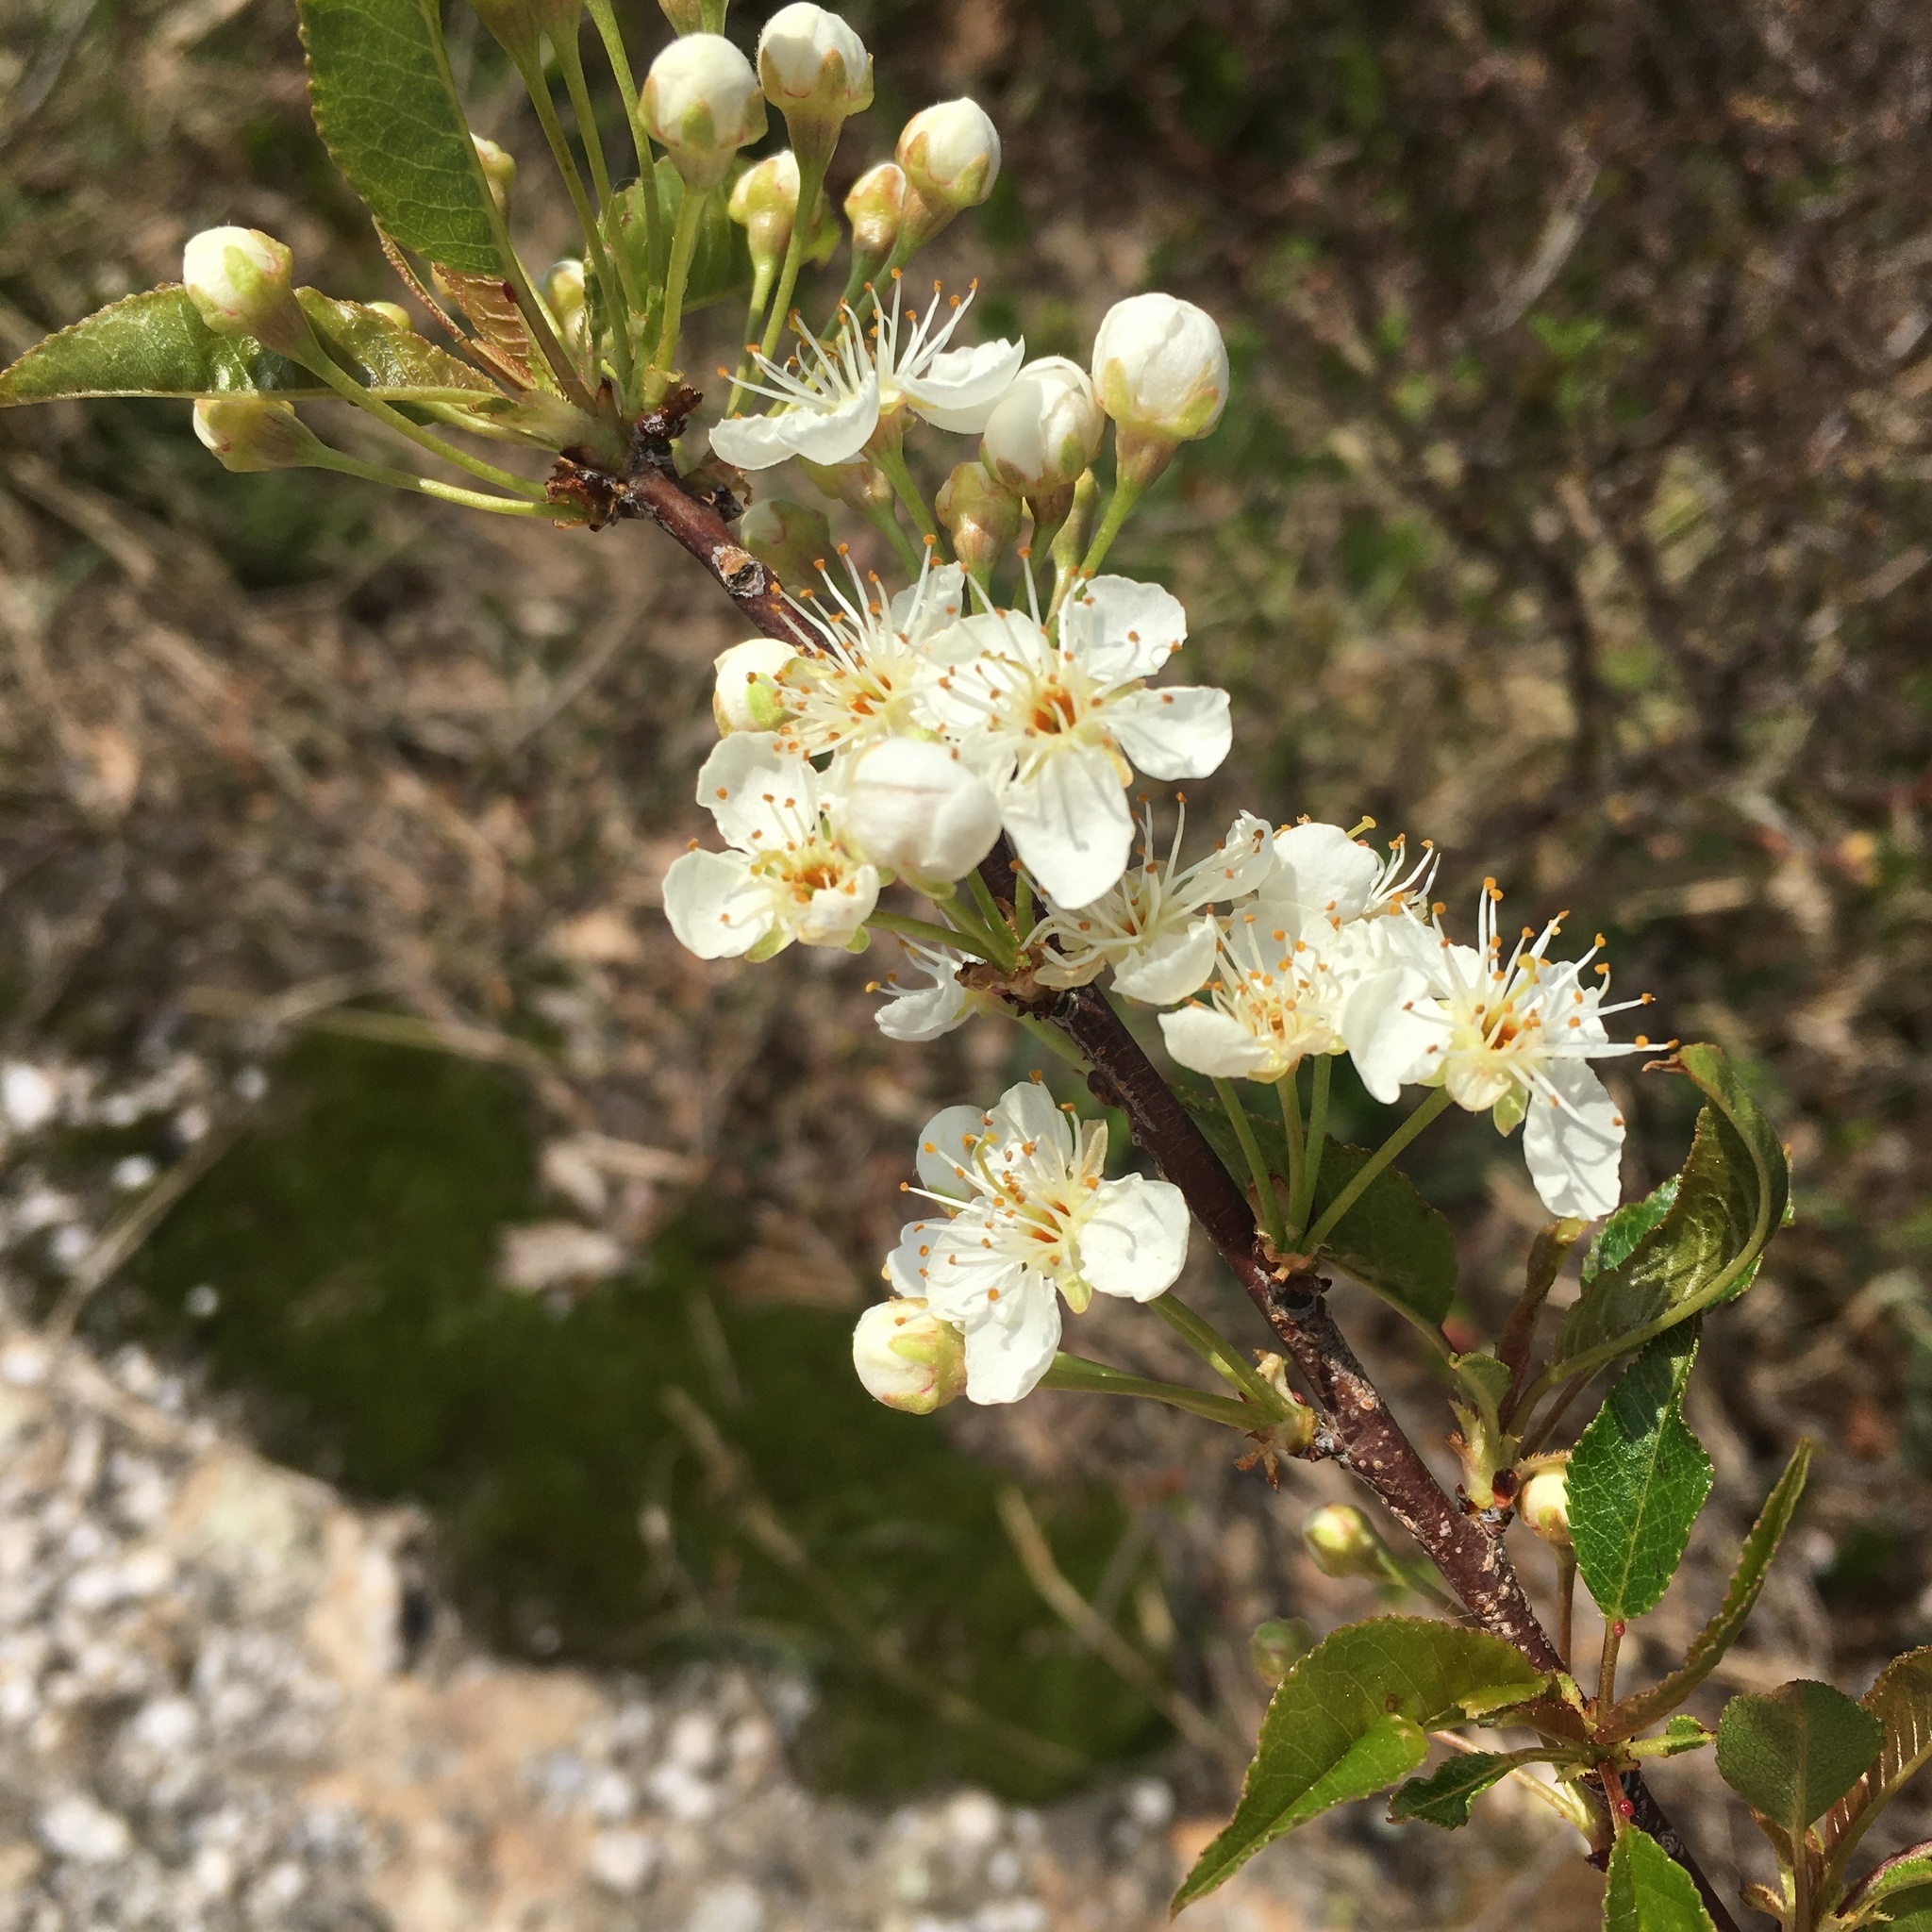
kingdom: Plantae
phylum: Tracheophyta
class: Magnoliopsida
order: Rosales
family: Rosaceae
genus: Prunus
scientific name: Prunus pensylvanica
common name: Pin cherry
